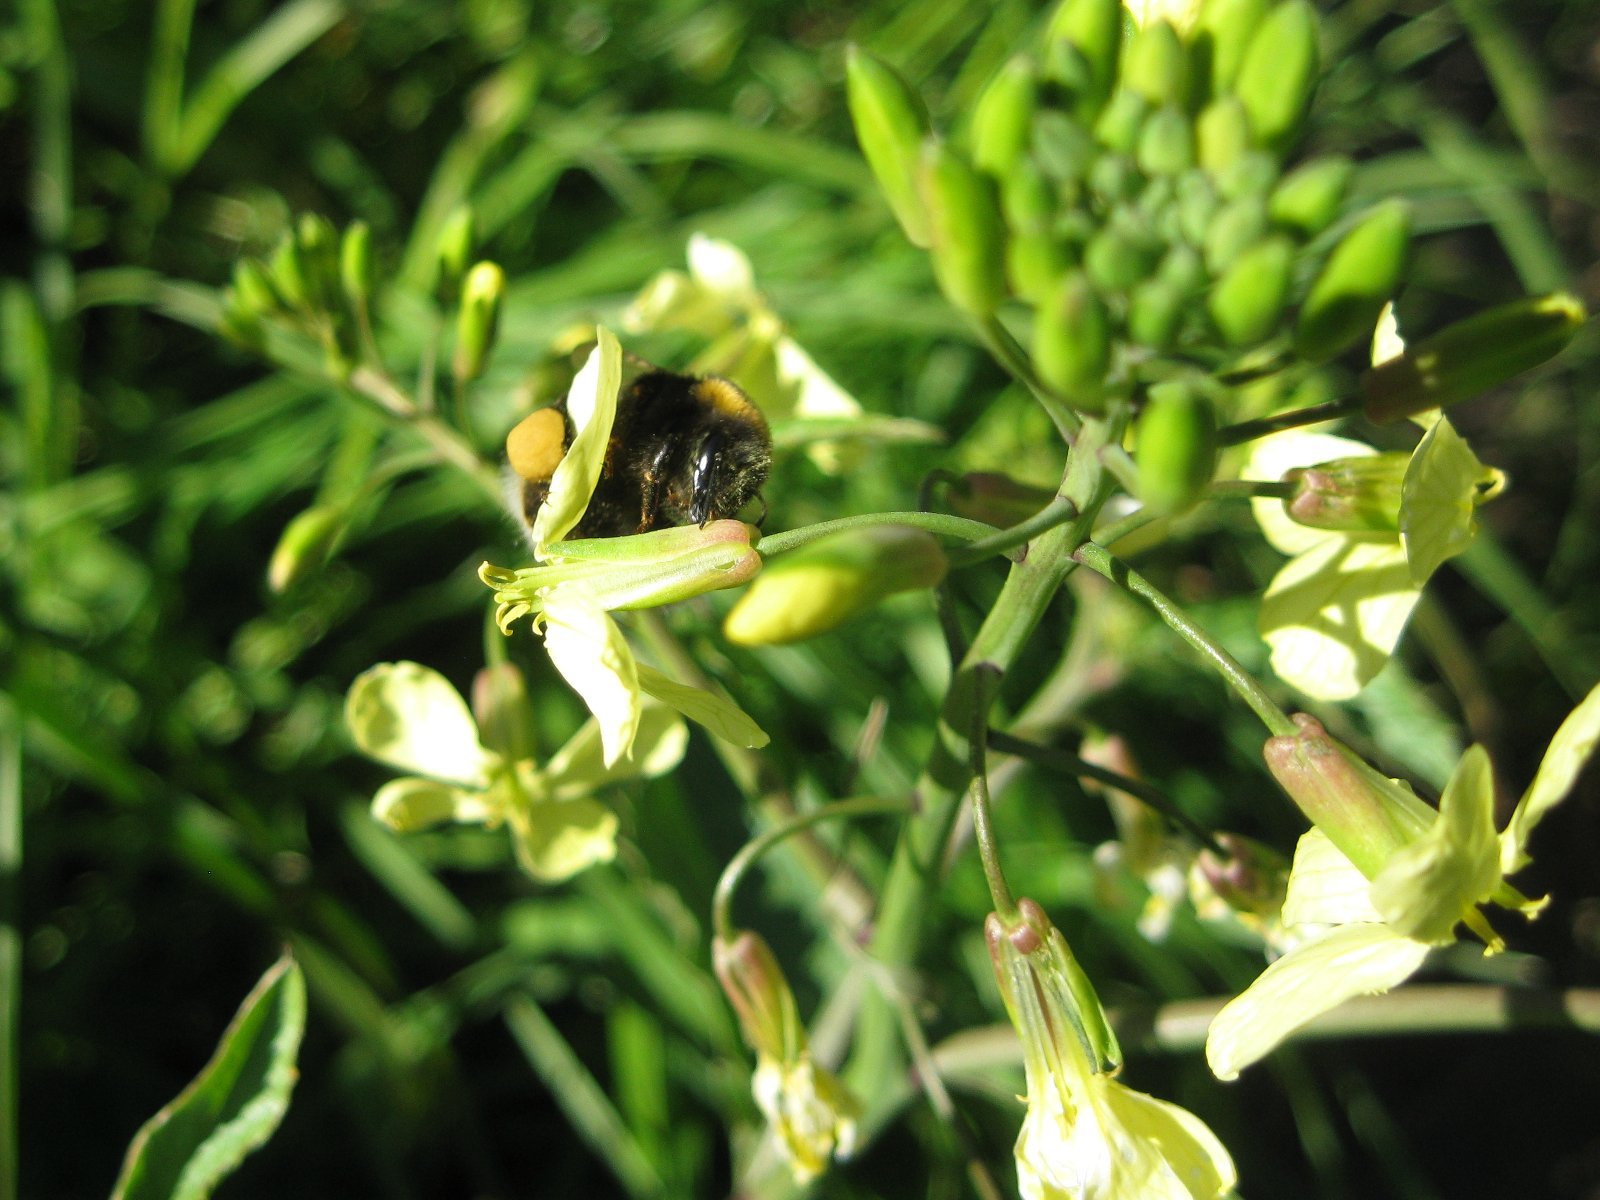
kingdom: Animalia
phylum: Arthropoda
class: Insecta
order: Hymenoptera
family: Apidae
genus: Bombus
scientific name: Bombus terrestris
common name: Buff-tailed bumblebee
